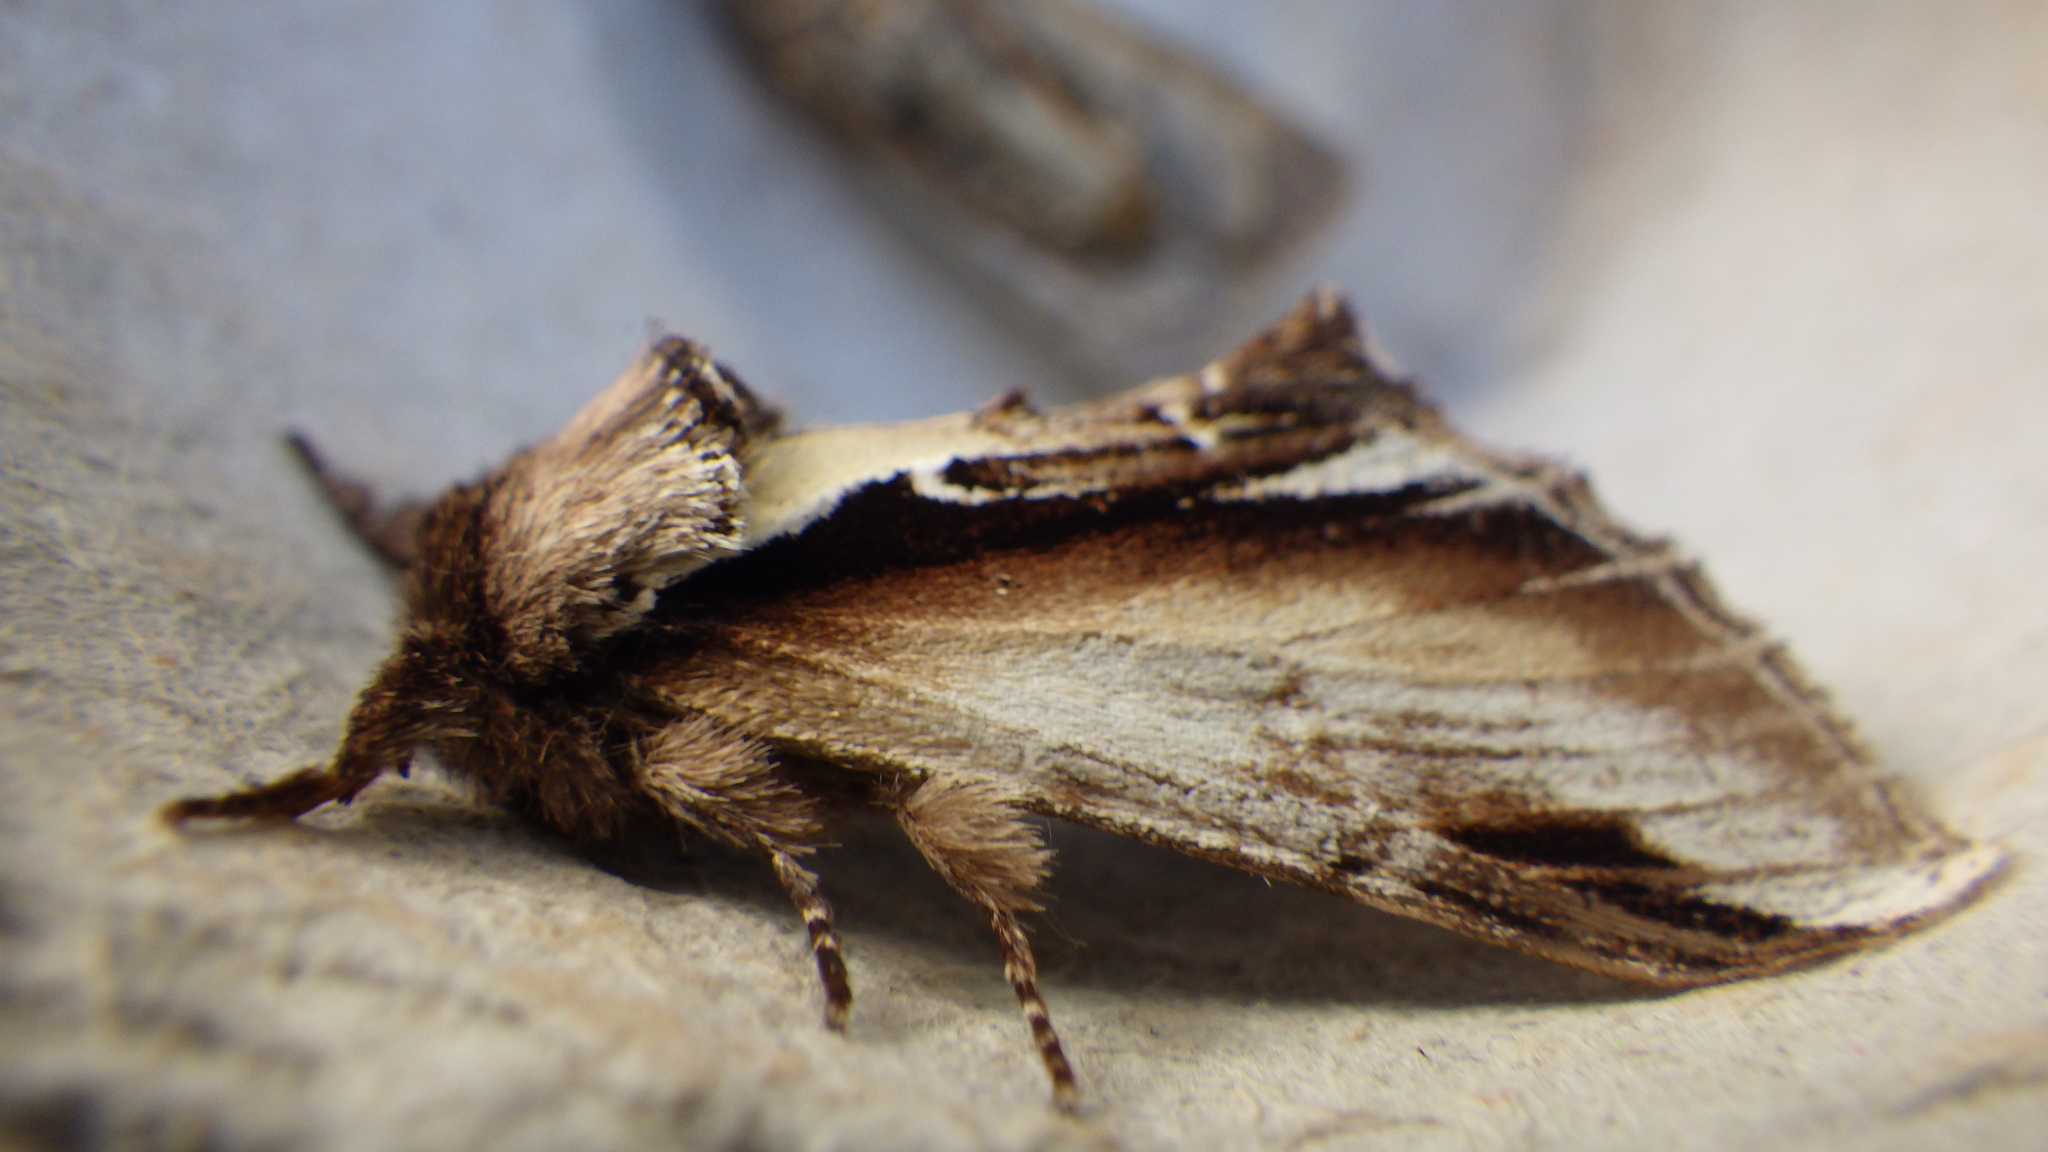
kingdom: Animalia
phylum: Arthropoda
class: Insecta
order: Lepidoptera
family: Notodontidae
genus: Pheosia
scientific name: Pheosia gnoma
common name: Lesser swallow prominent
